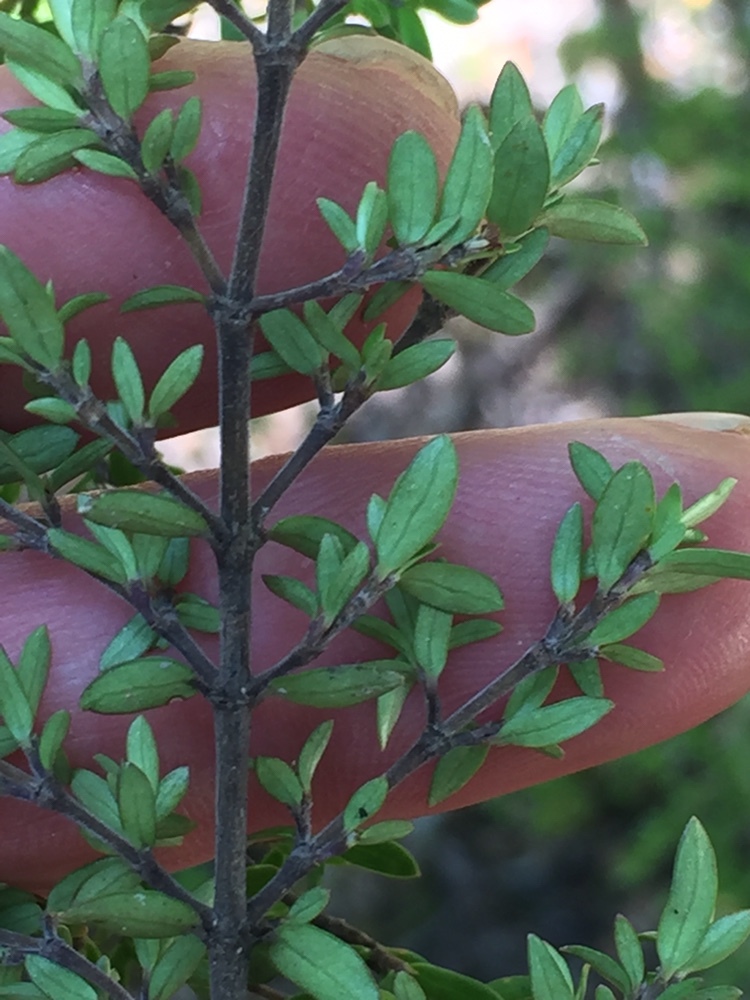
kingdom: Plantae
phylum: Tracheophyta
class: Magnoliopsida
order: Gentianales
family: Rubiaceae
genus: Coprosma
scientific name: Coprosma microcarpa
